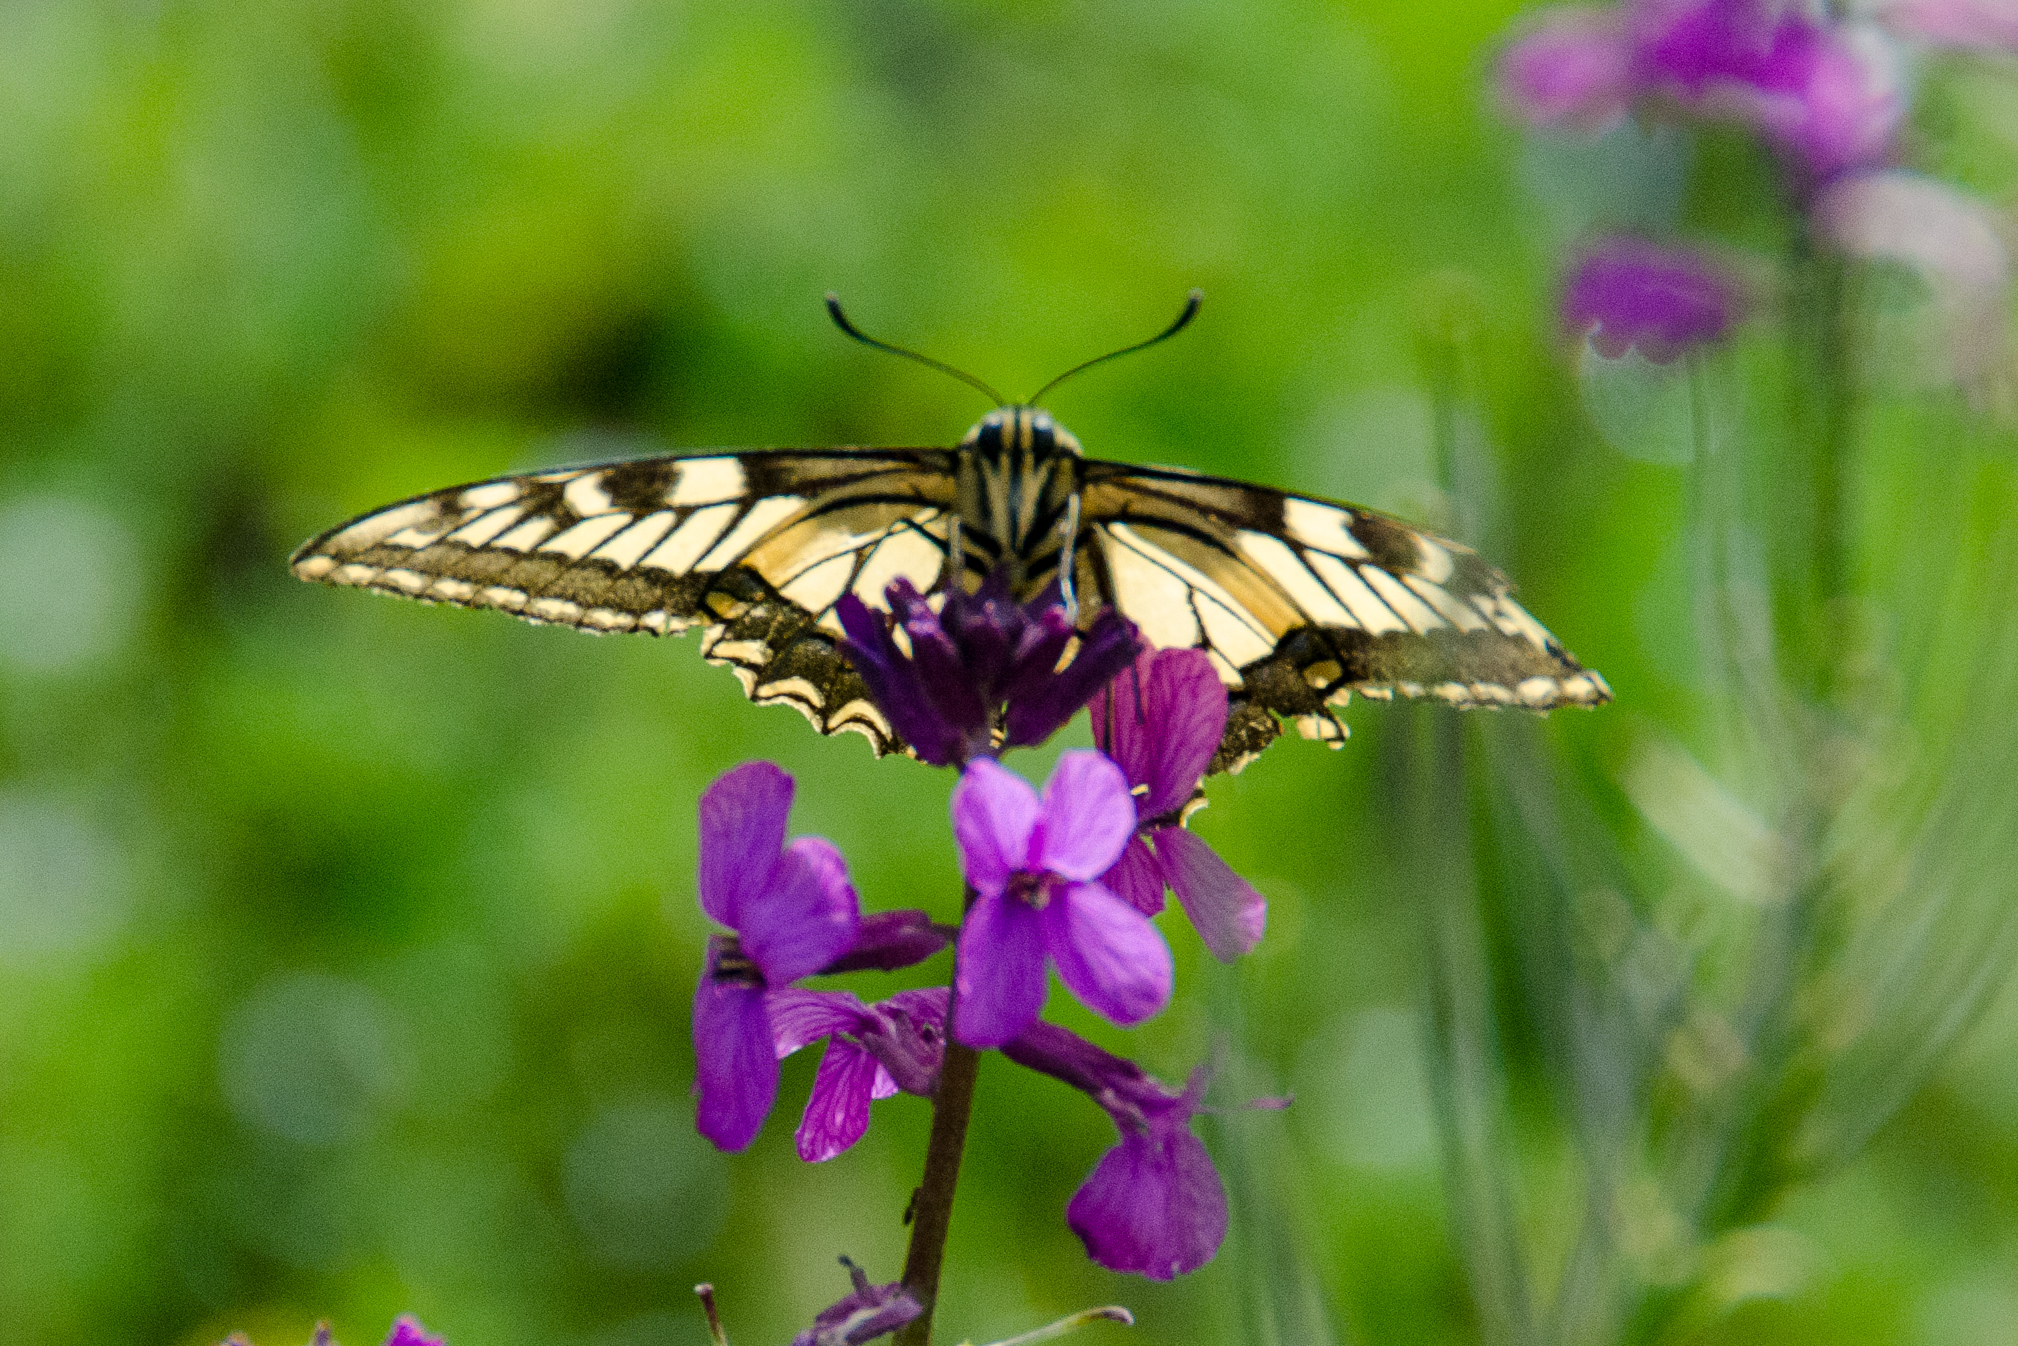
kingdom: Animalia
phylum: Arthropoda
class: Insecta
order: Lepidoptera
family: Papilionidae
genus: Papilio
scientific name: Papilio machaon
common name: Swallowtail
